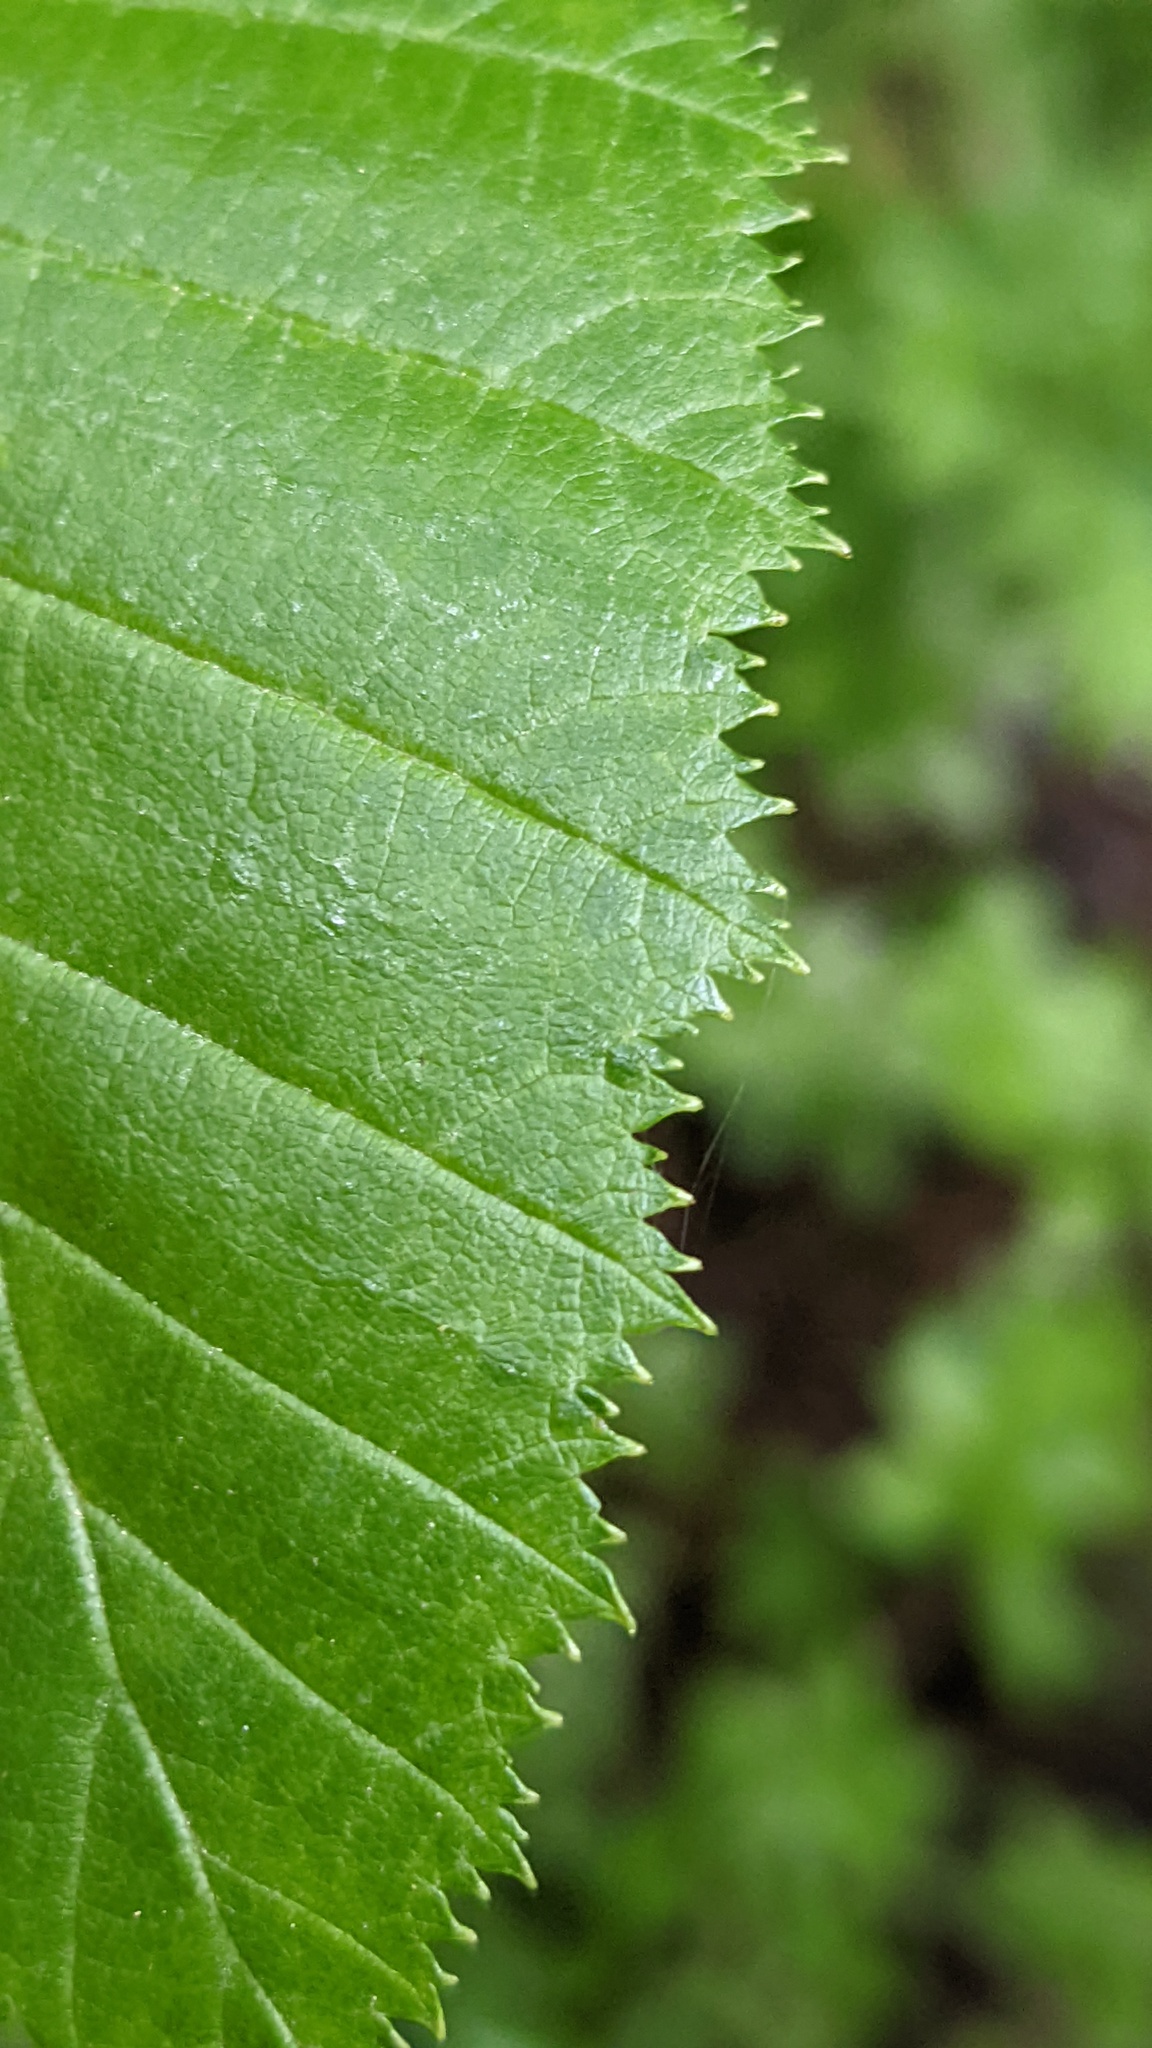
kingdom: Plantae
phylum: Tracheophyta
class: Magnoliopsida
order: Fagales
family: Betulaceae
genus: Alnus
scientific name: Alnus alnobetula
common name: Green alder
